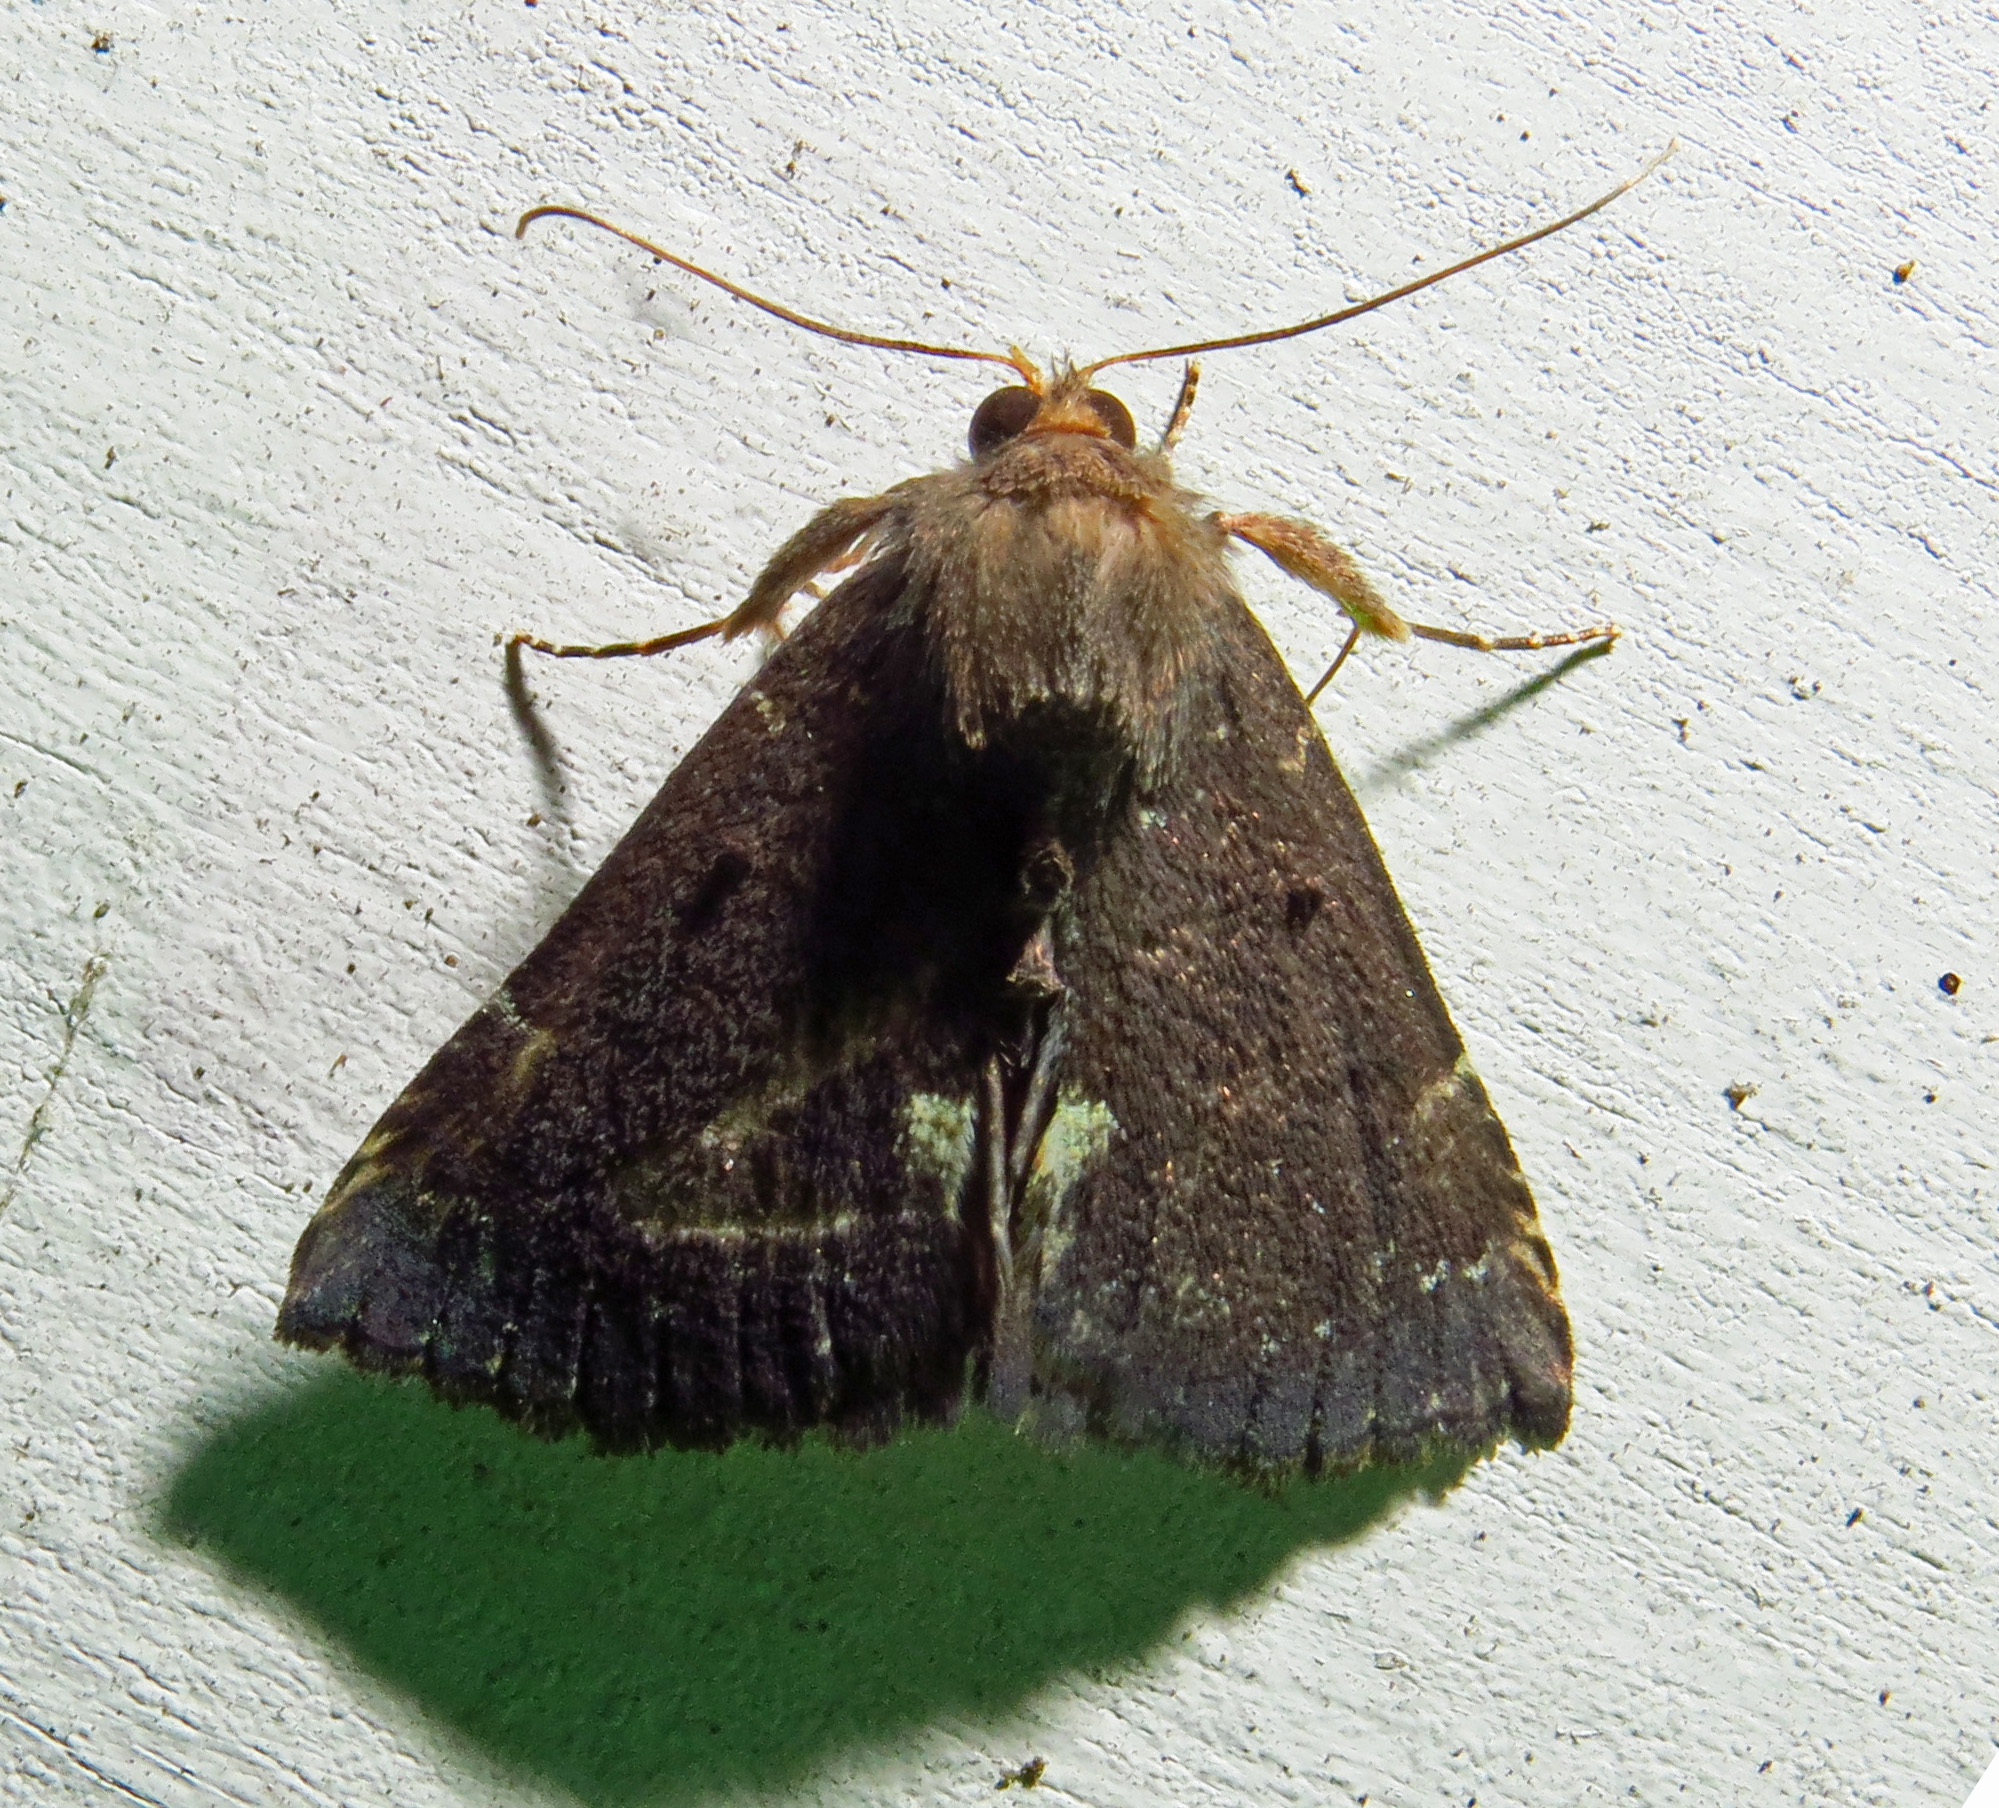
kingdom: Animalia
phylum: Arthropoda
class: Insecta
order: Lepidoptera
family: Erebidae
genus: Hypena
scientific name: Hypena bijugalis
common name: Dimorphic bomolocha moth
